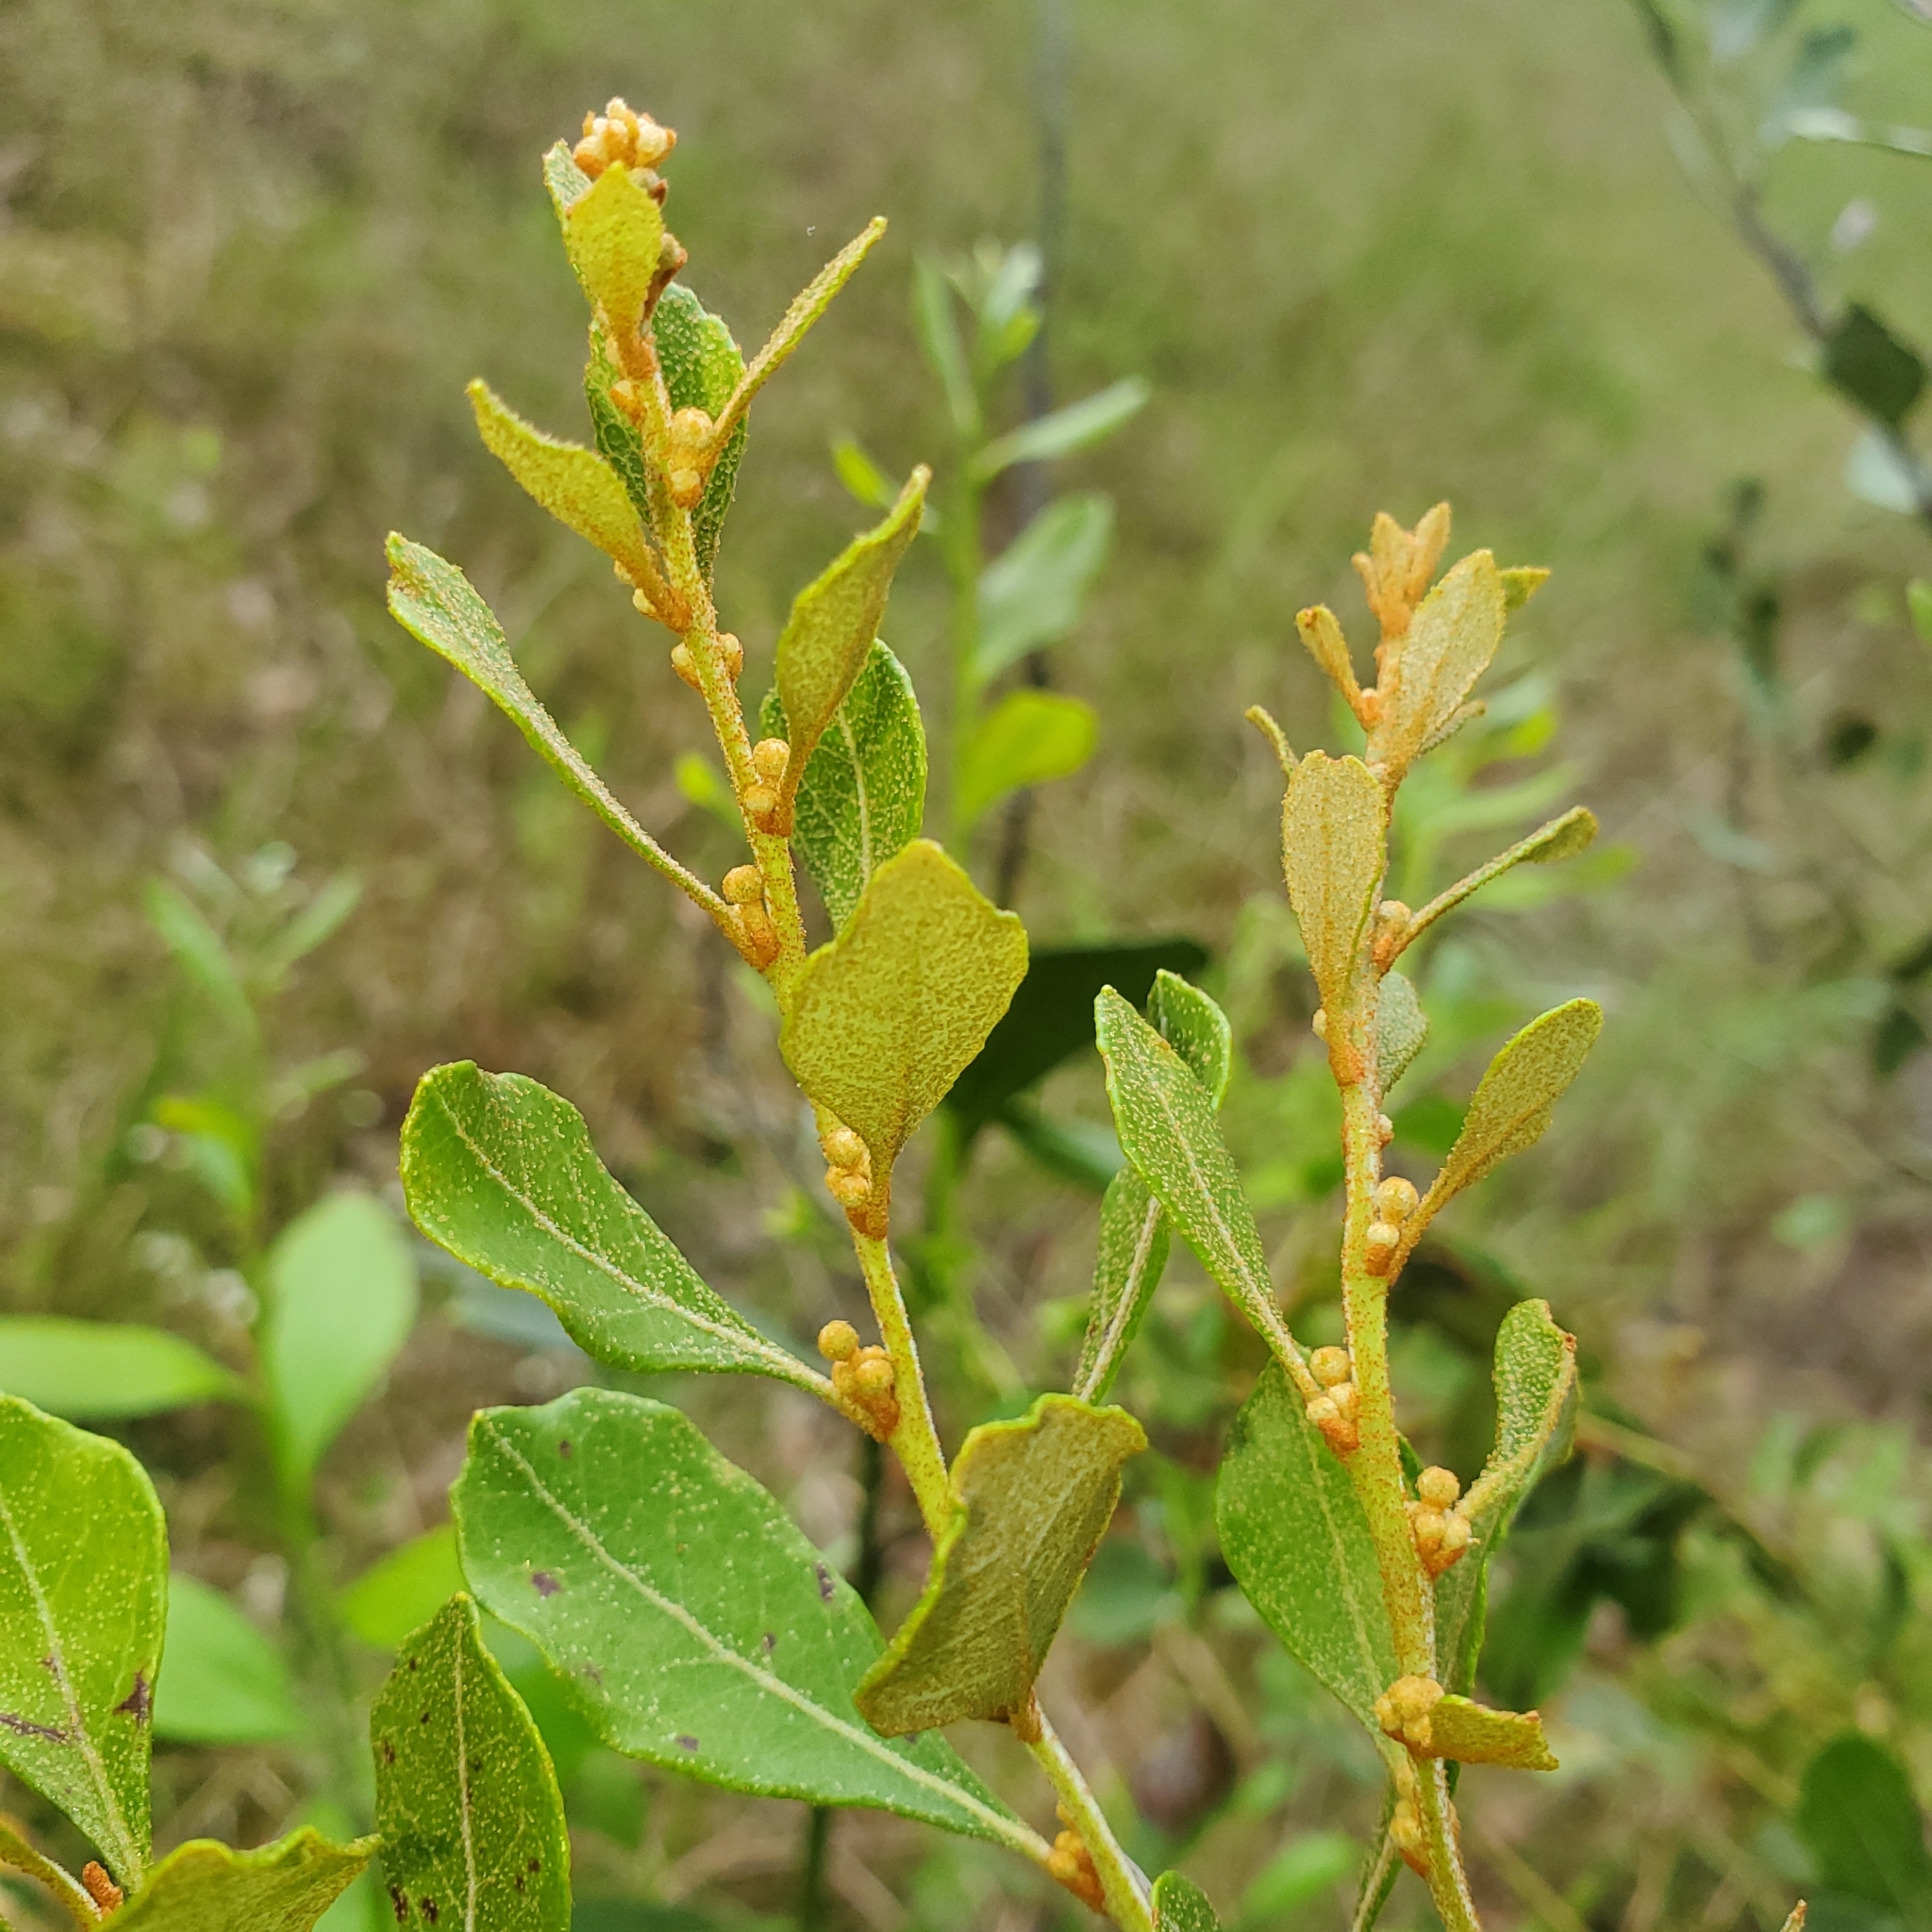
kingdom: Plantae
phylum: Tracheophyta
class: Magnoliopsida
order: Ericales
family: Ericaceae
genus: Lyonia
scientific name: Lyonia fruticosa
